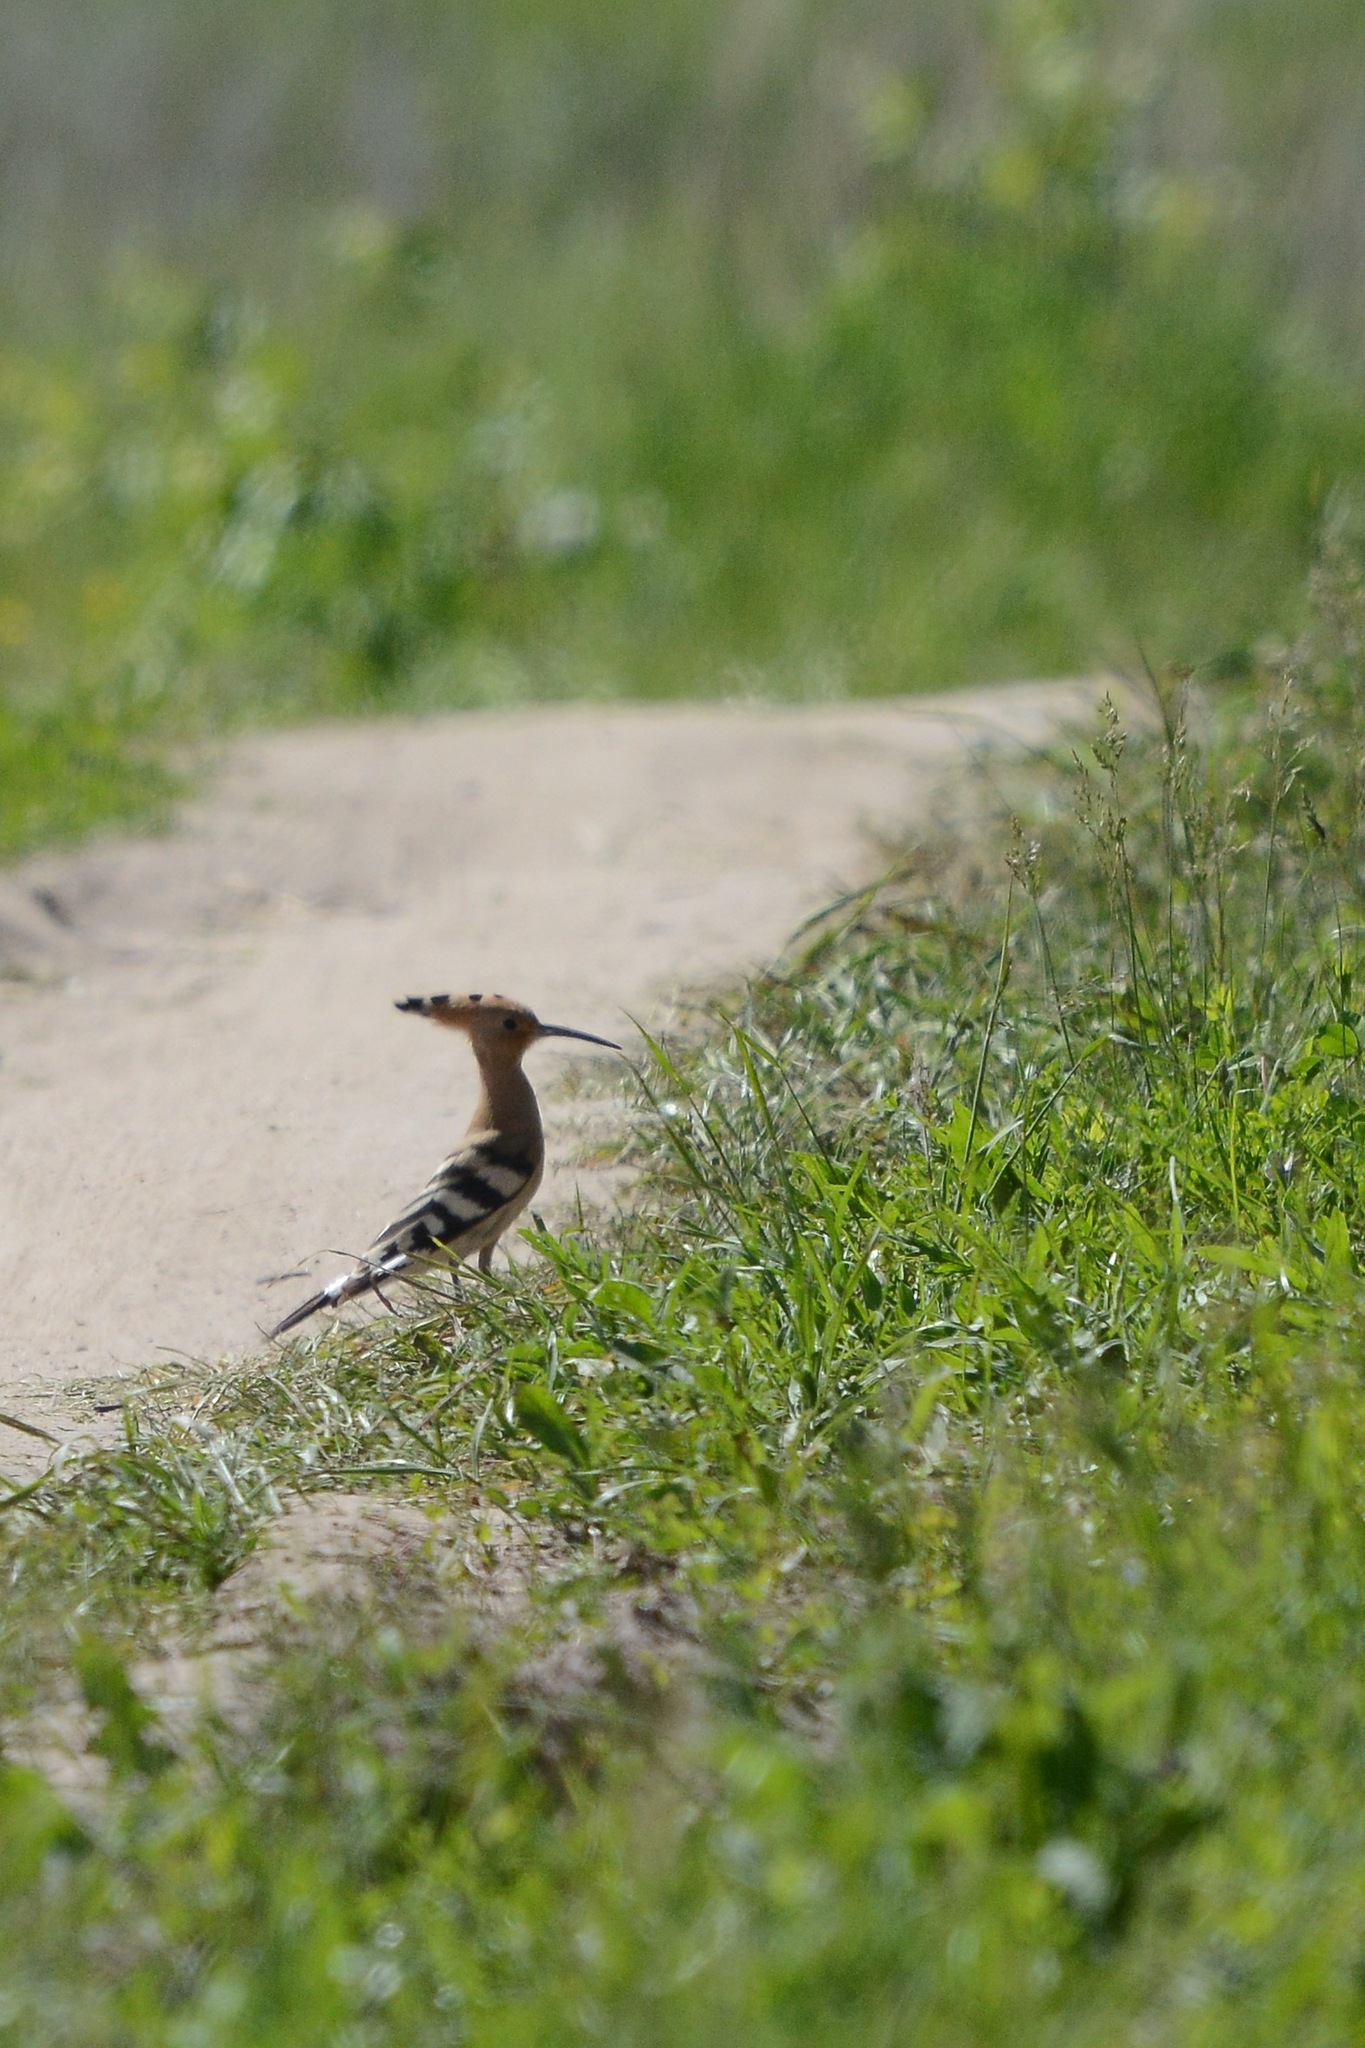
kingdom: Animalia
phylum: Chordata
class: Aves
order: Bucerotiformes
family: Upupidae
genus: Upupa
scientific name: Upupa epops
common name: Eurasian hoopoe
